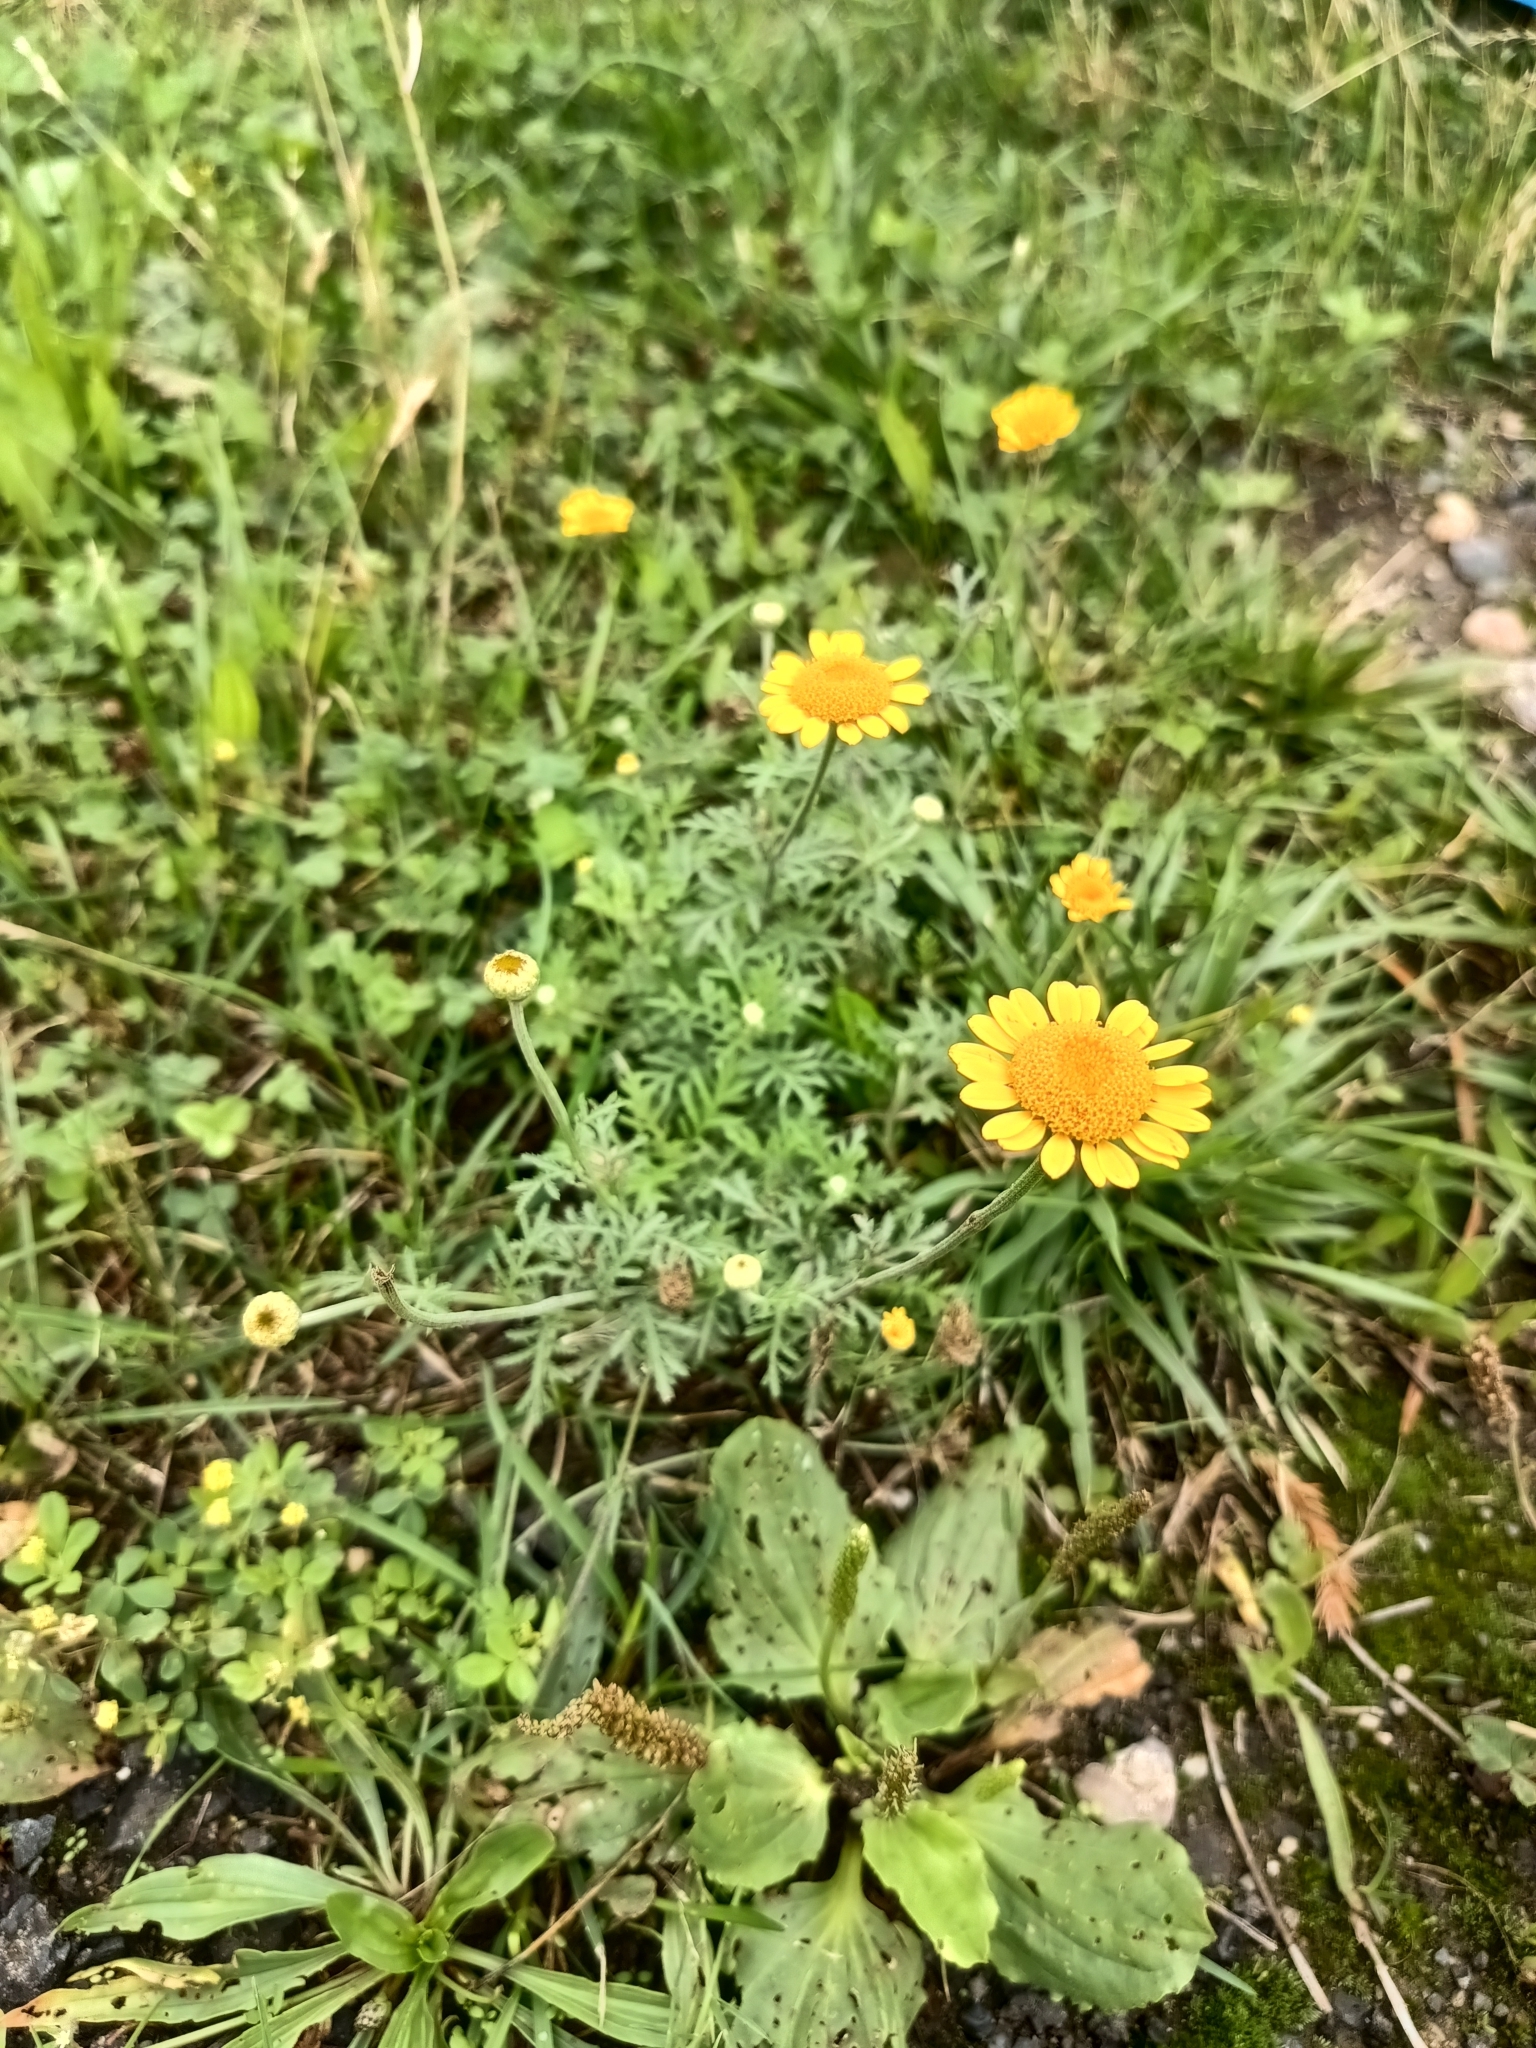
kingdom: Plantae
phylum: Tracheophyta
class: Magnoliopsida
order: Asterales
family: Asteraceae
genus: Cota
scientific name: Cota tinctoria
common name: Golden chamomile
